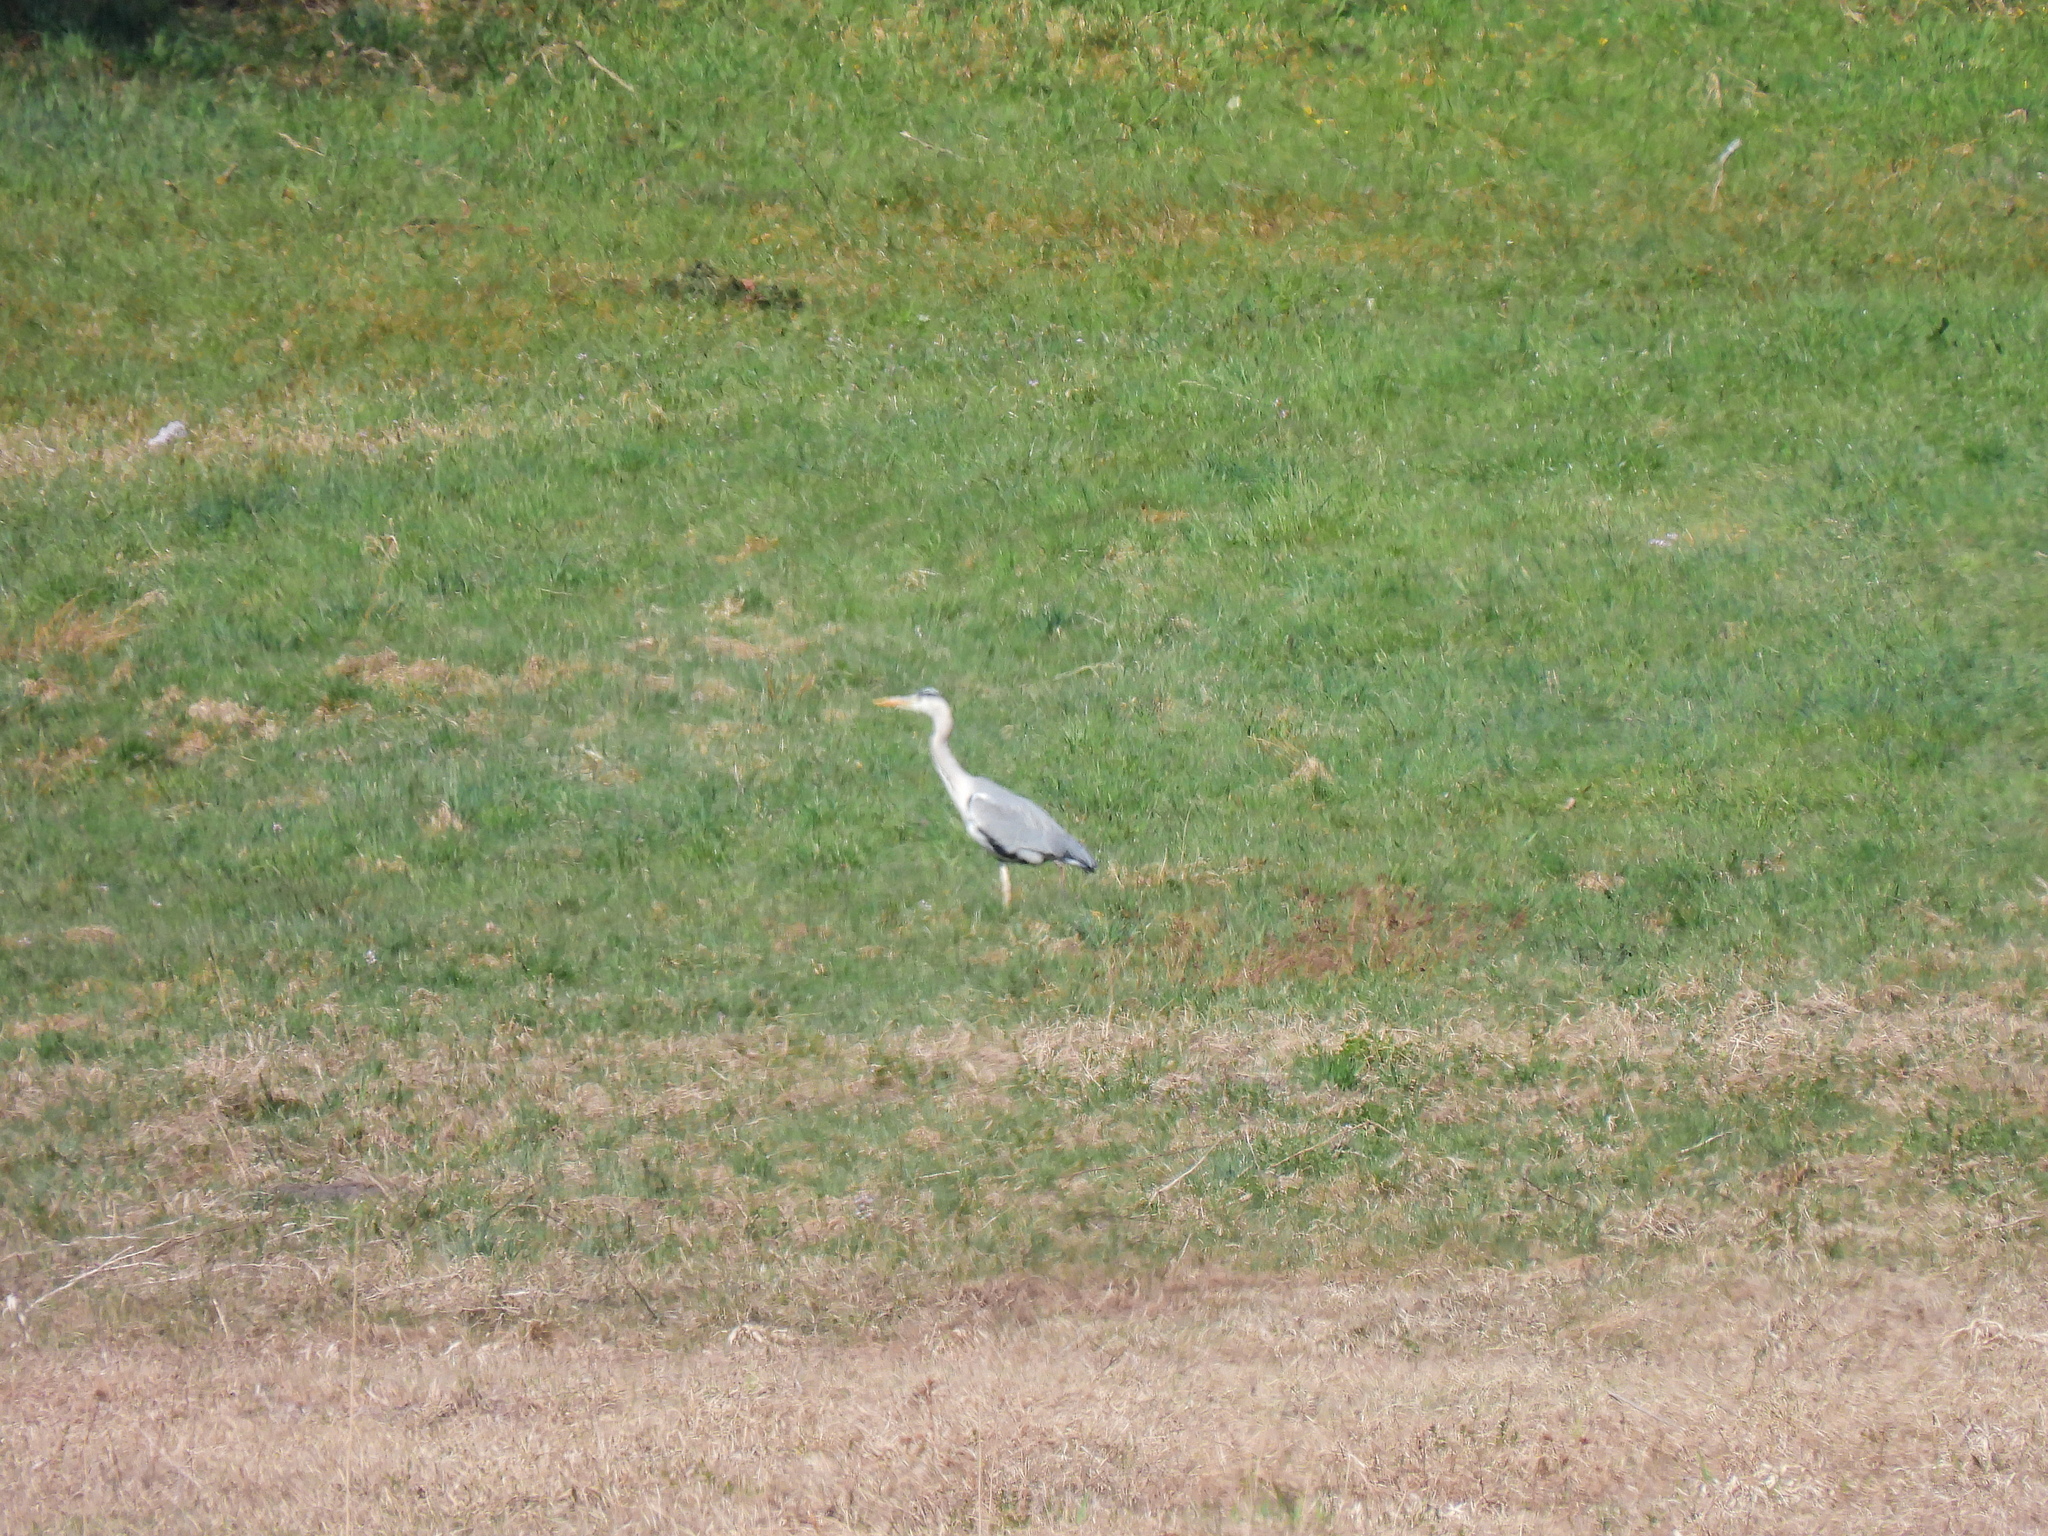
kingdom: Animalia
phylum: Chordata
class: Aves
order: Pelecaniformes
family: Ardeidae
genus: Ardea
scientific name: Ardea cinerea
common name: Grey heron
